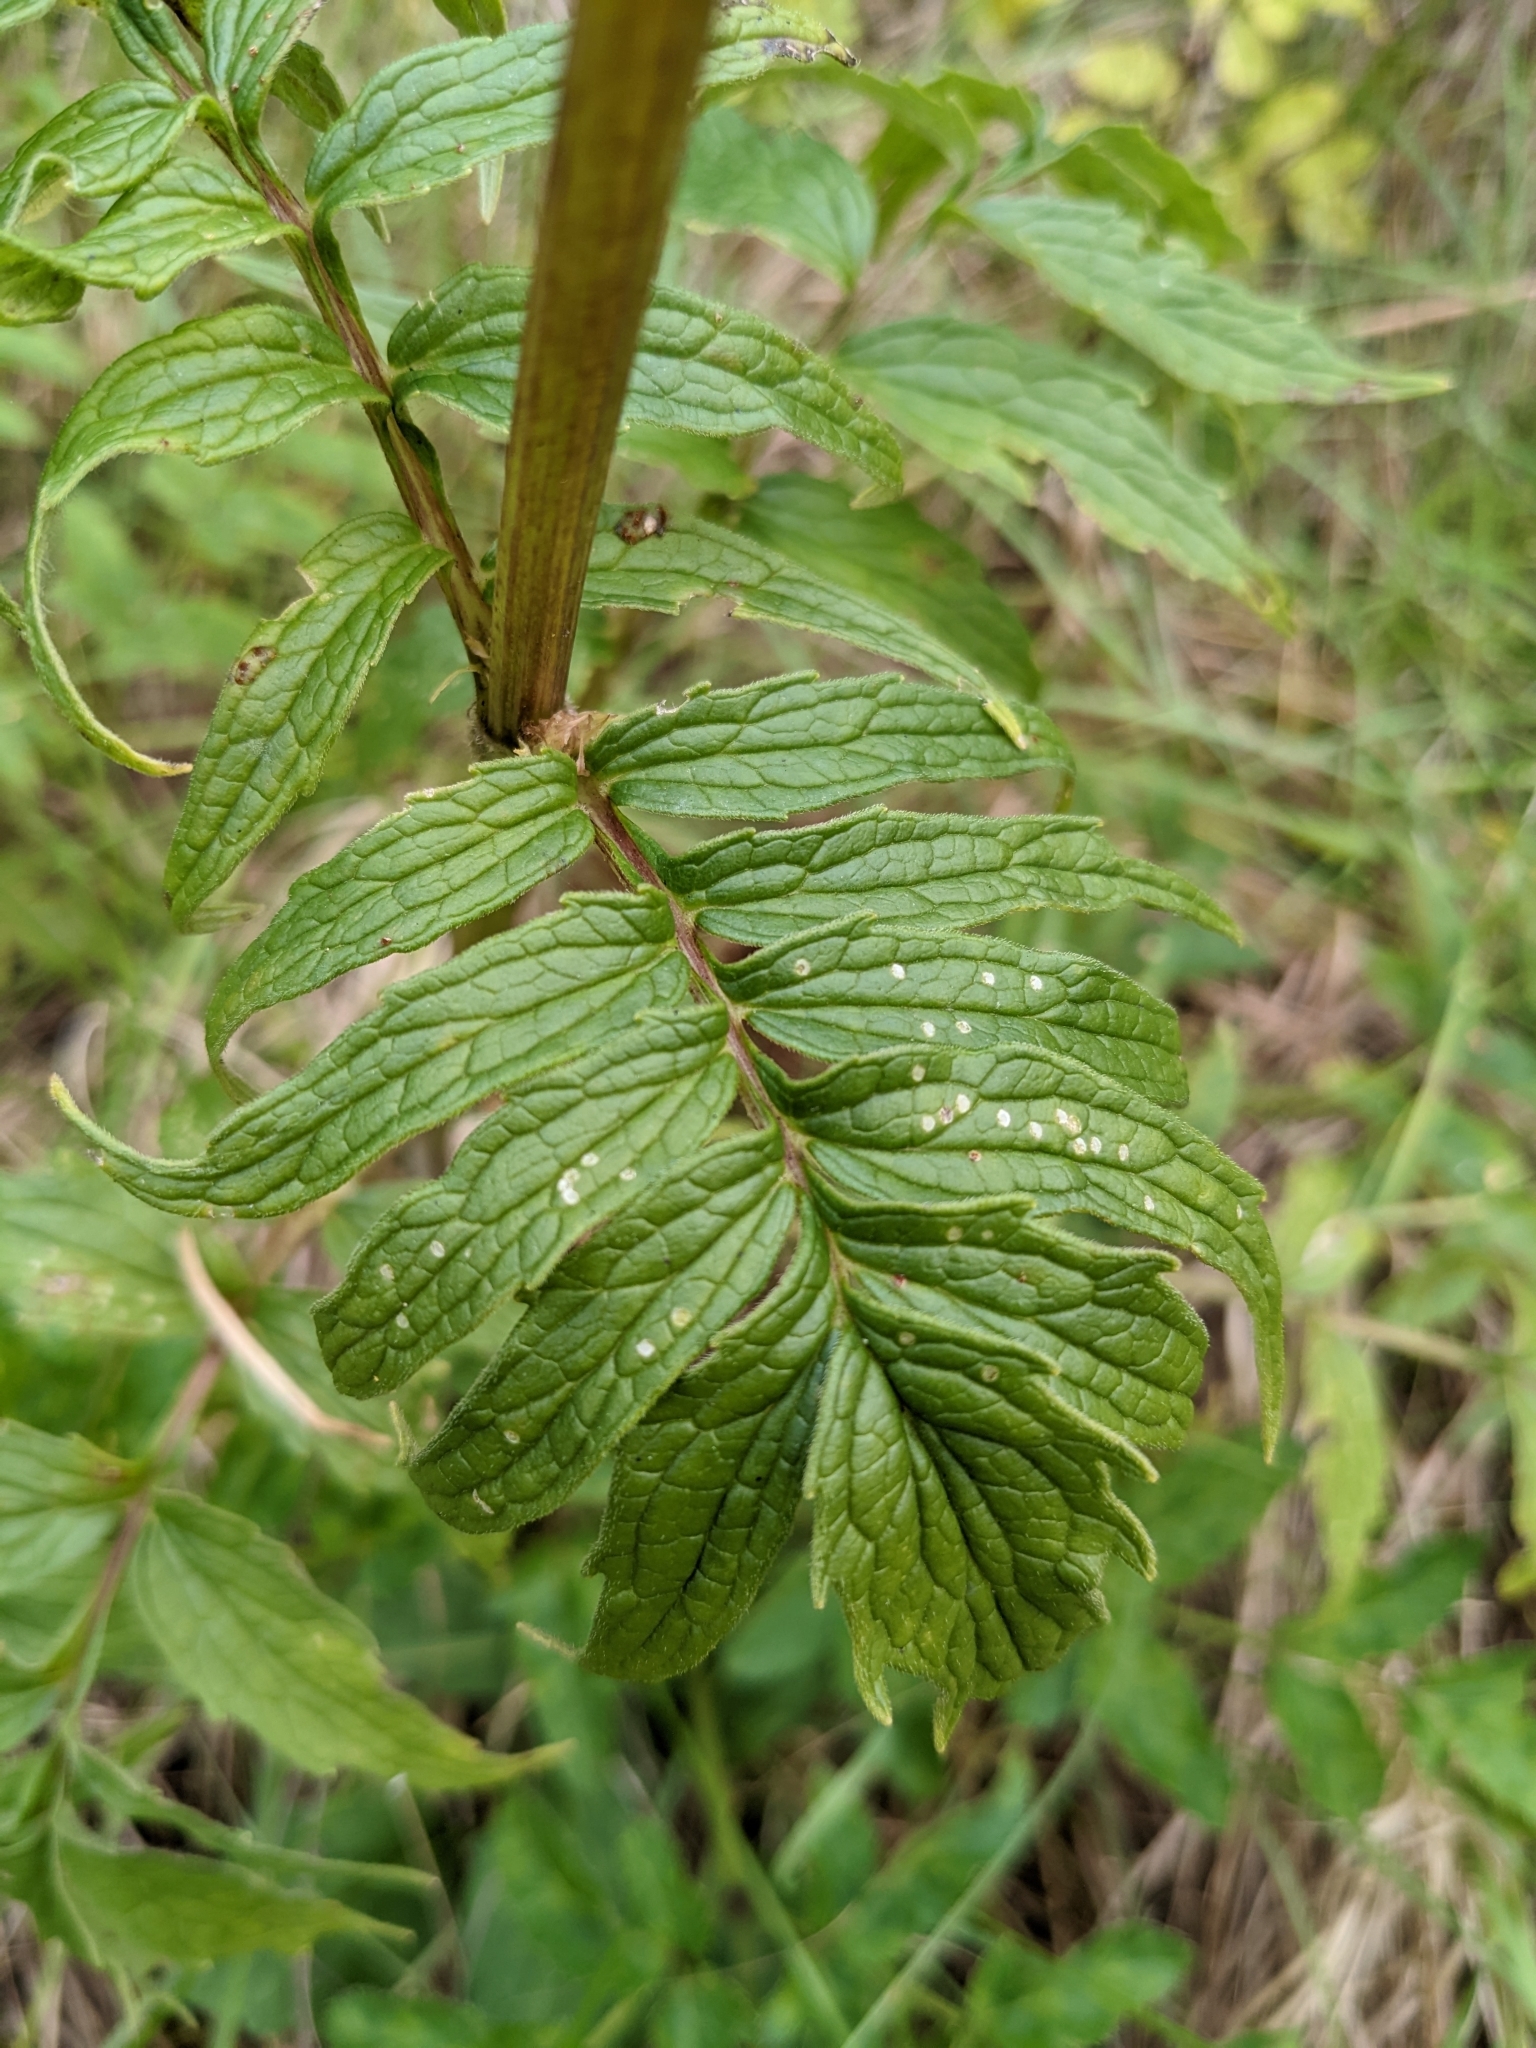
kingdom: Plantae
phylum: Tracheophyta
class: Magnoliopsida
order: Dipsacales
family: Caprifoliaceae
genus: Valeriana
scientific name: Valeriana officinalis
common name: Common valerian
